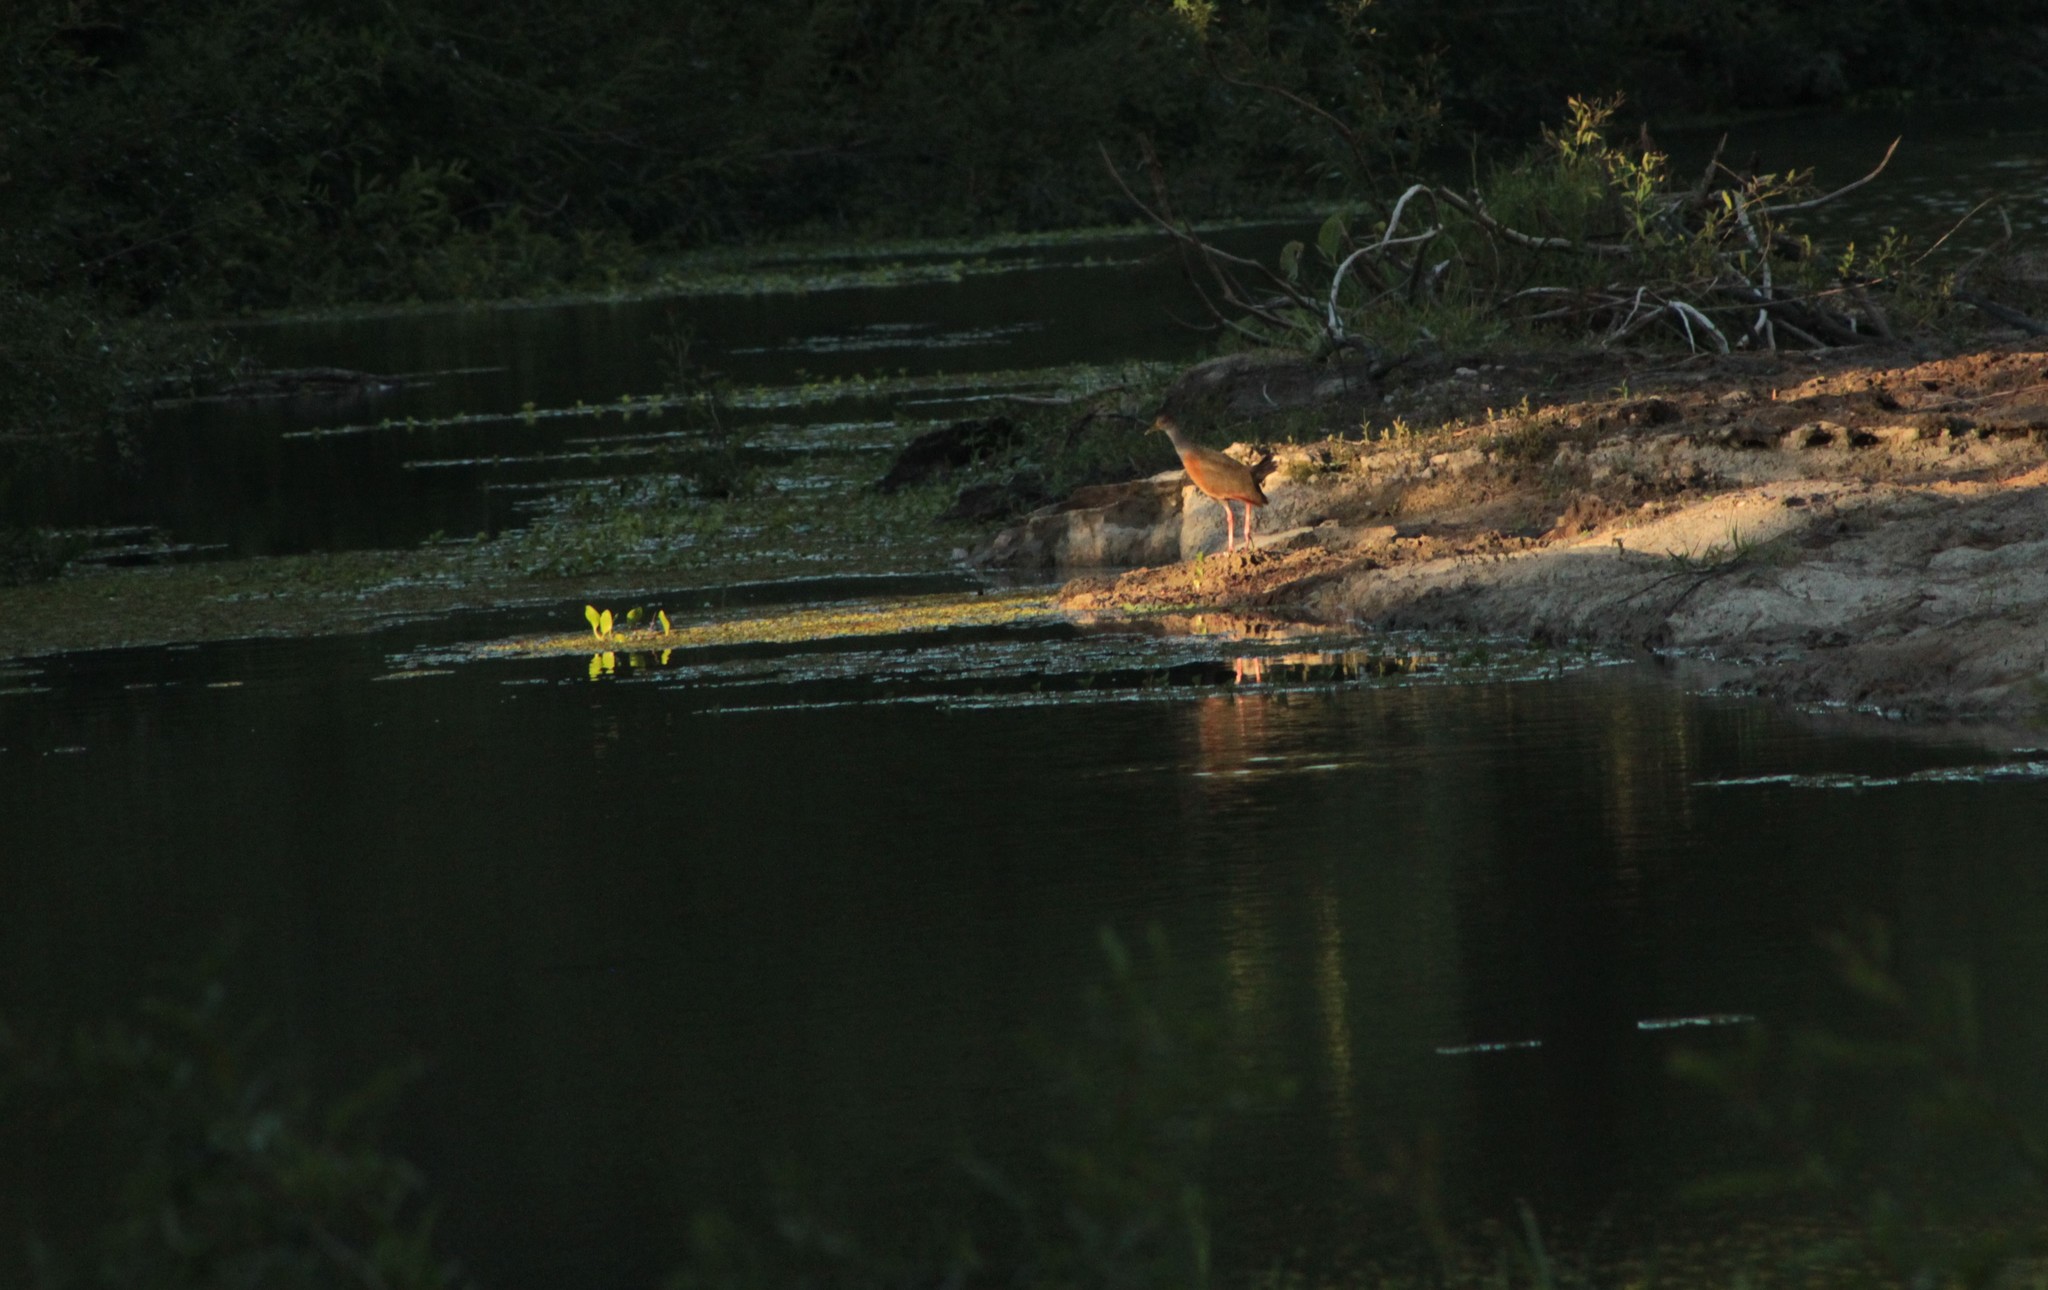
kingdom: Animalia
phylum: Chordata
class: Aves
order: Gruiformes
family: Rallidae
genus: Aramides
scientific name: Aramides cajanea
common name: Gray-necked wood-rail
